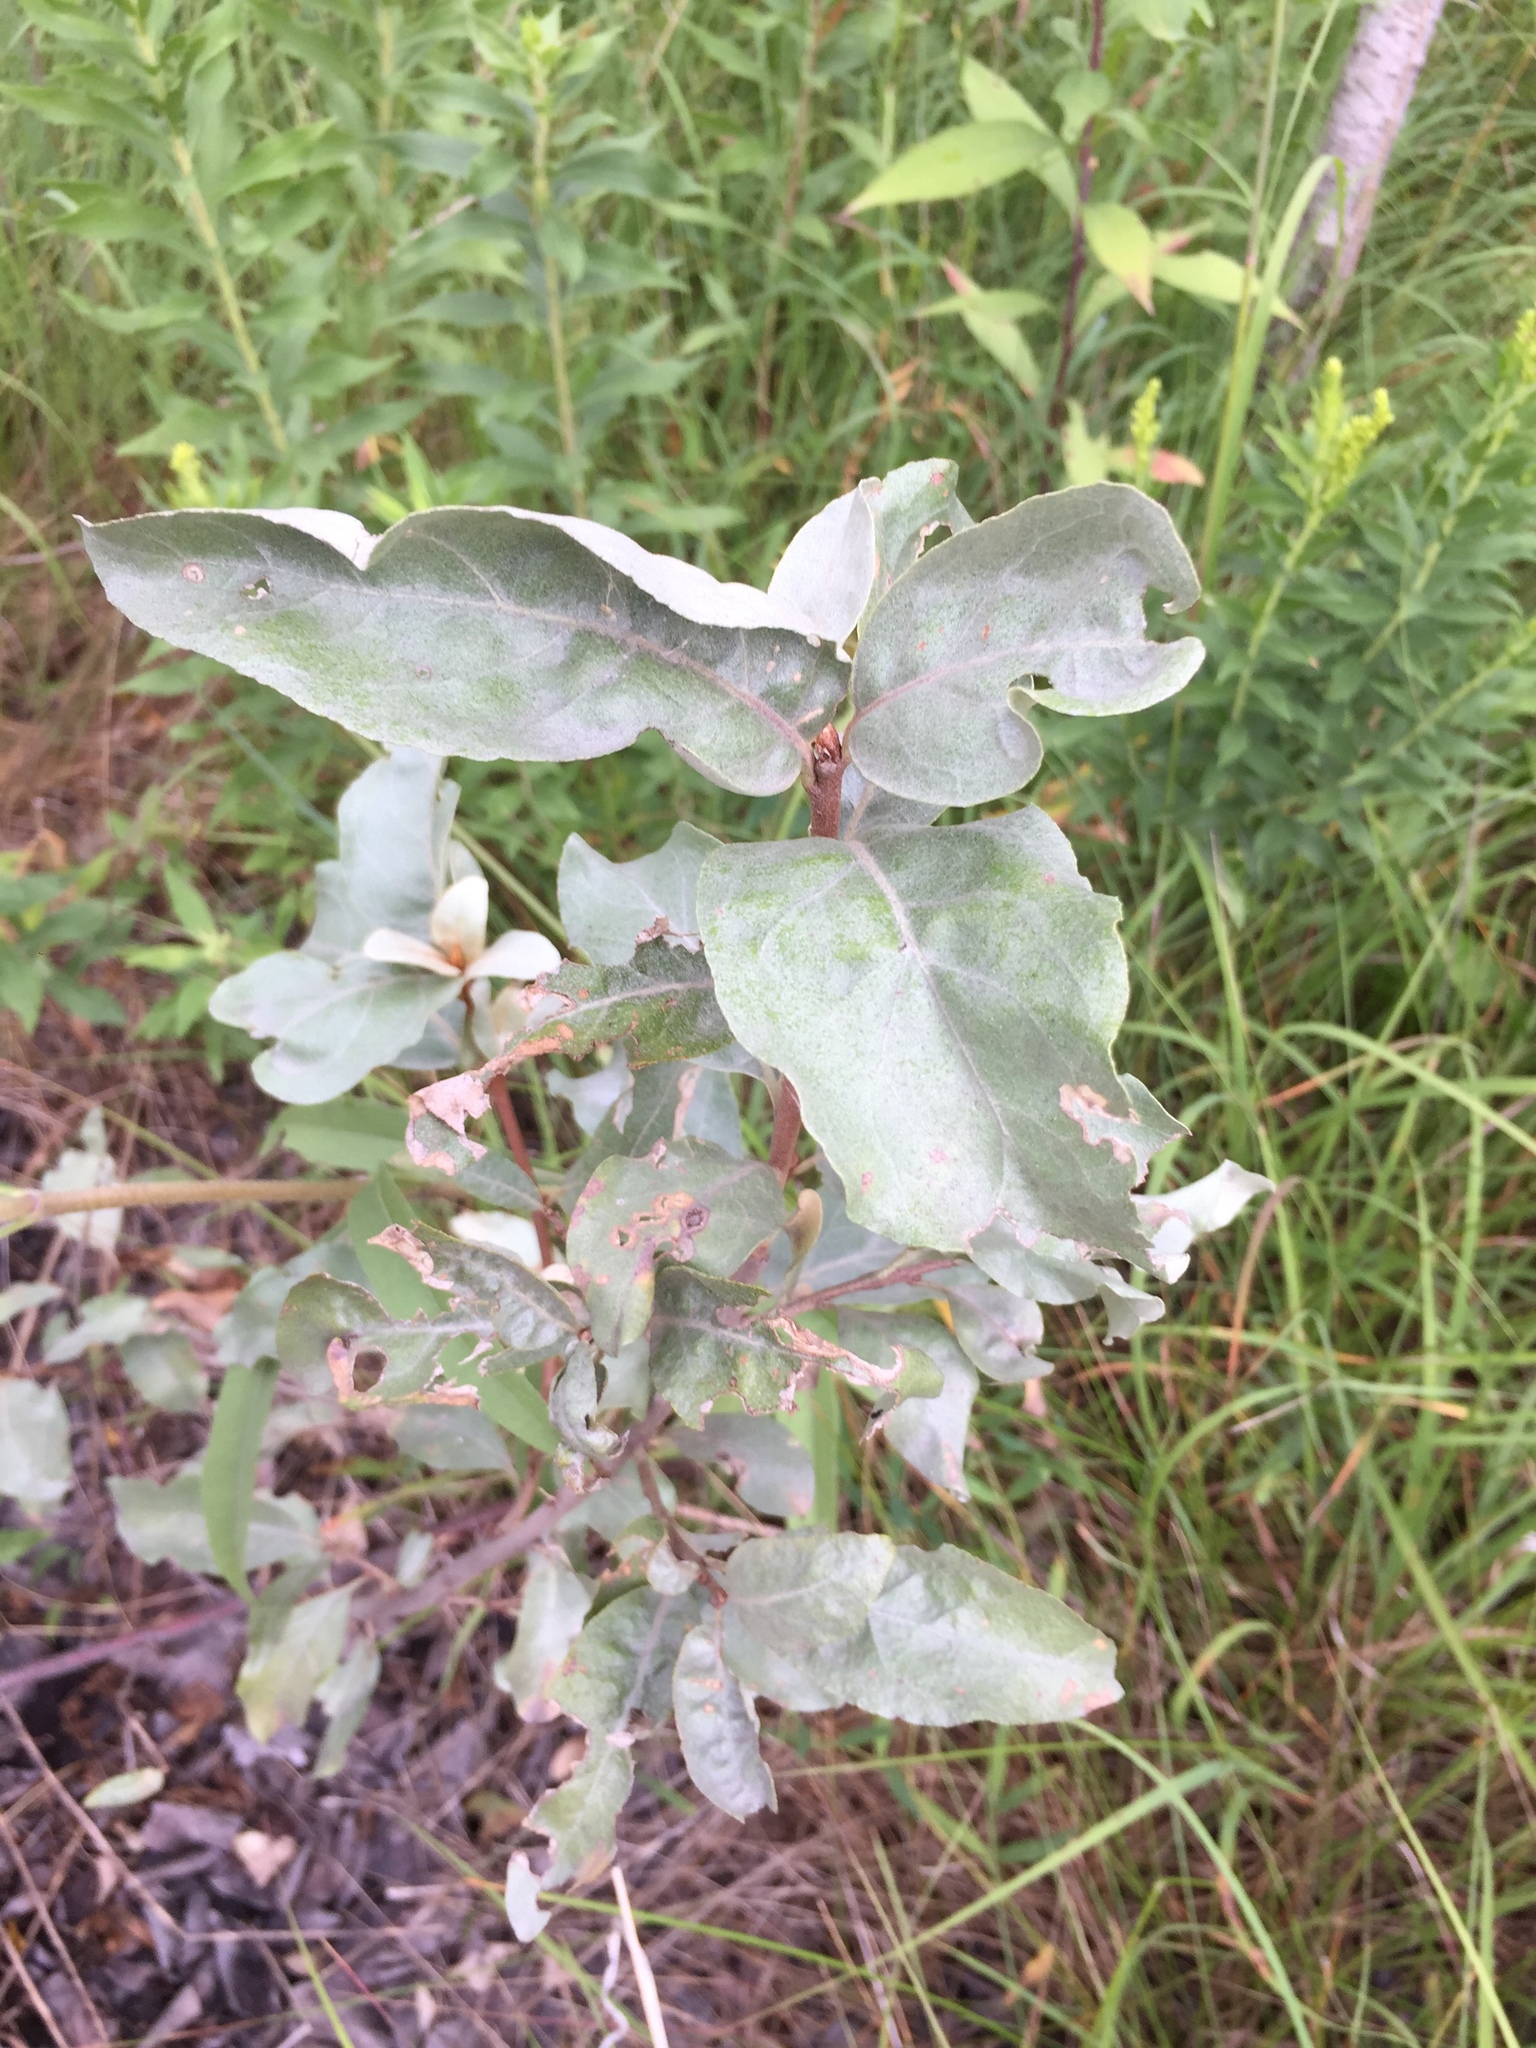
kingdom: Plantae
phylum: Tracheophyta
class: Magnoliopsida
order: Rosales
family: Elaeagnaceae
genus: Elaeagnus
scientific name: Elaeagnus commutata
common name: Silverberry
